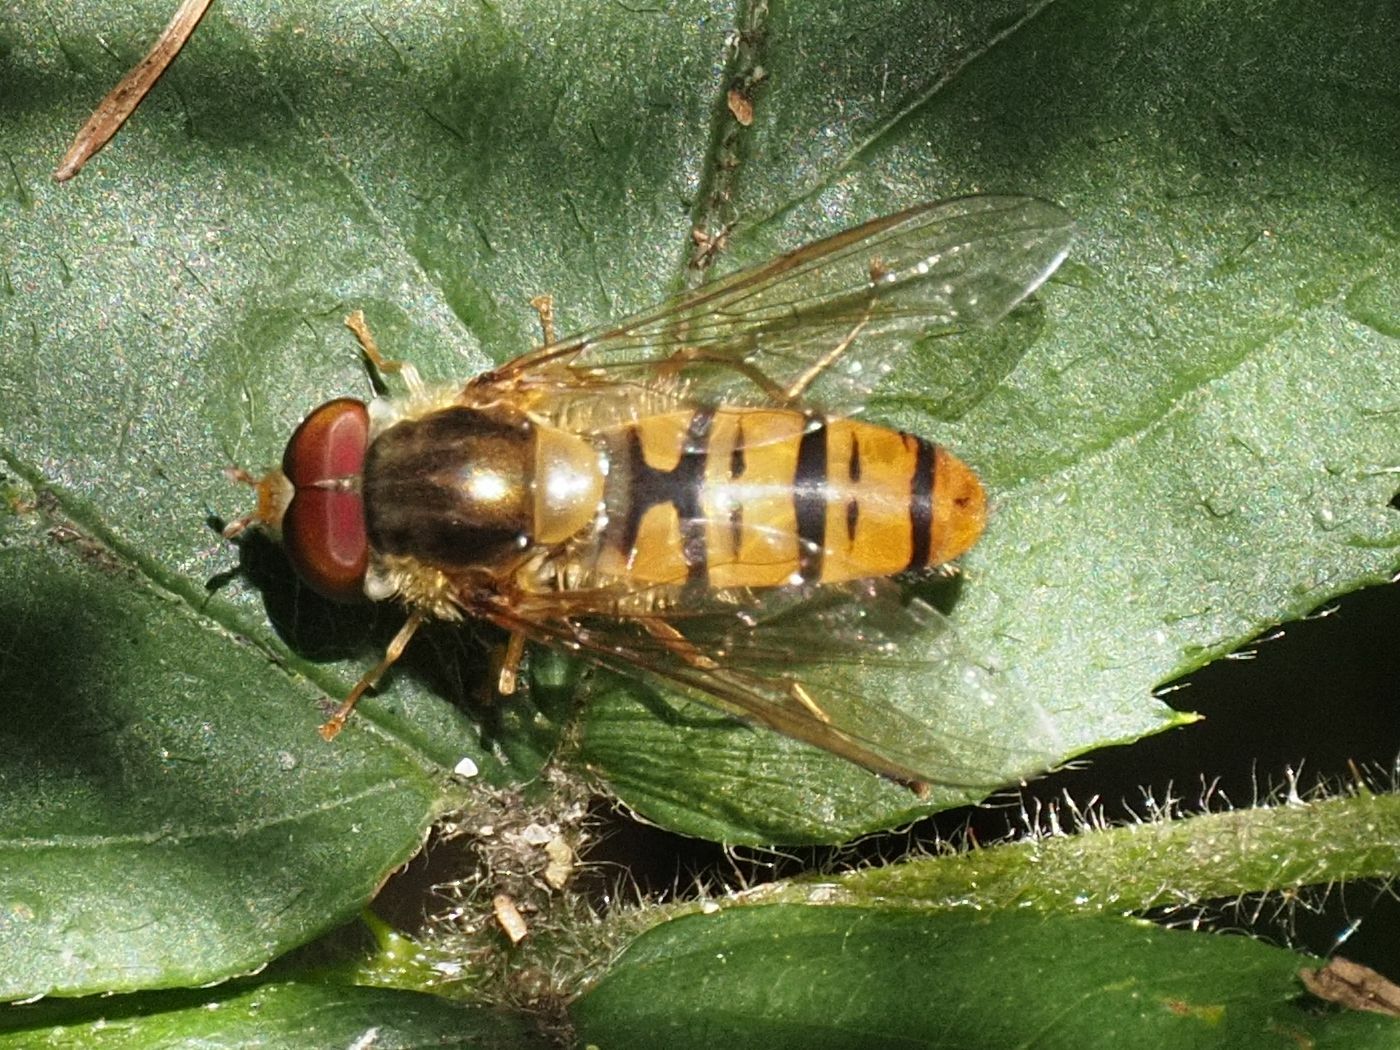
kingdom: Animalia
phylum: Arthropoda
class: Insecta
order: Diptera
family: Syrphidae
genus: Episyrphus
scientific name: Episyrphus balteatus
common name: Marmalade hoverfly
